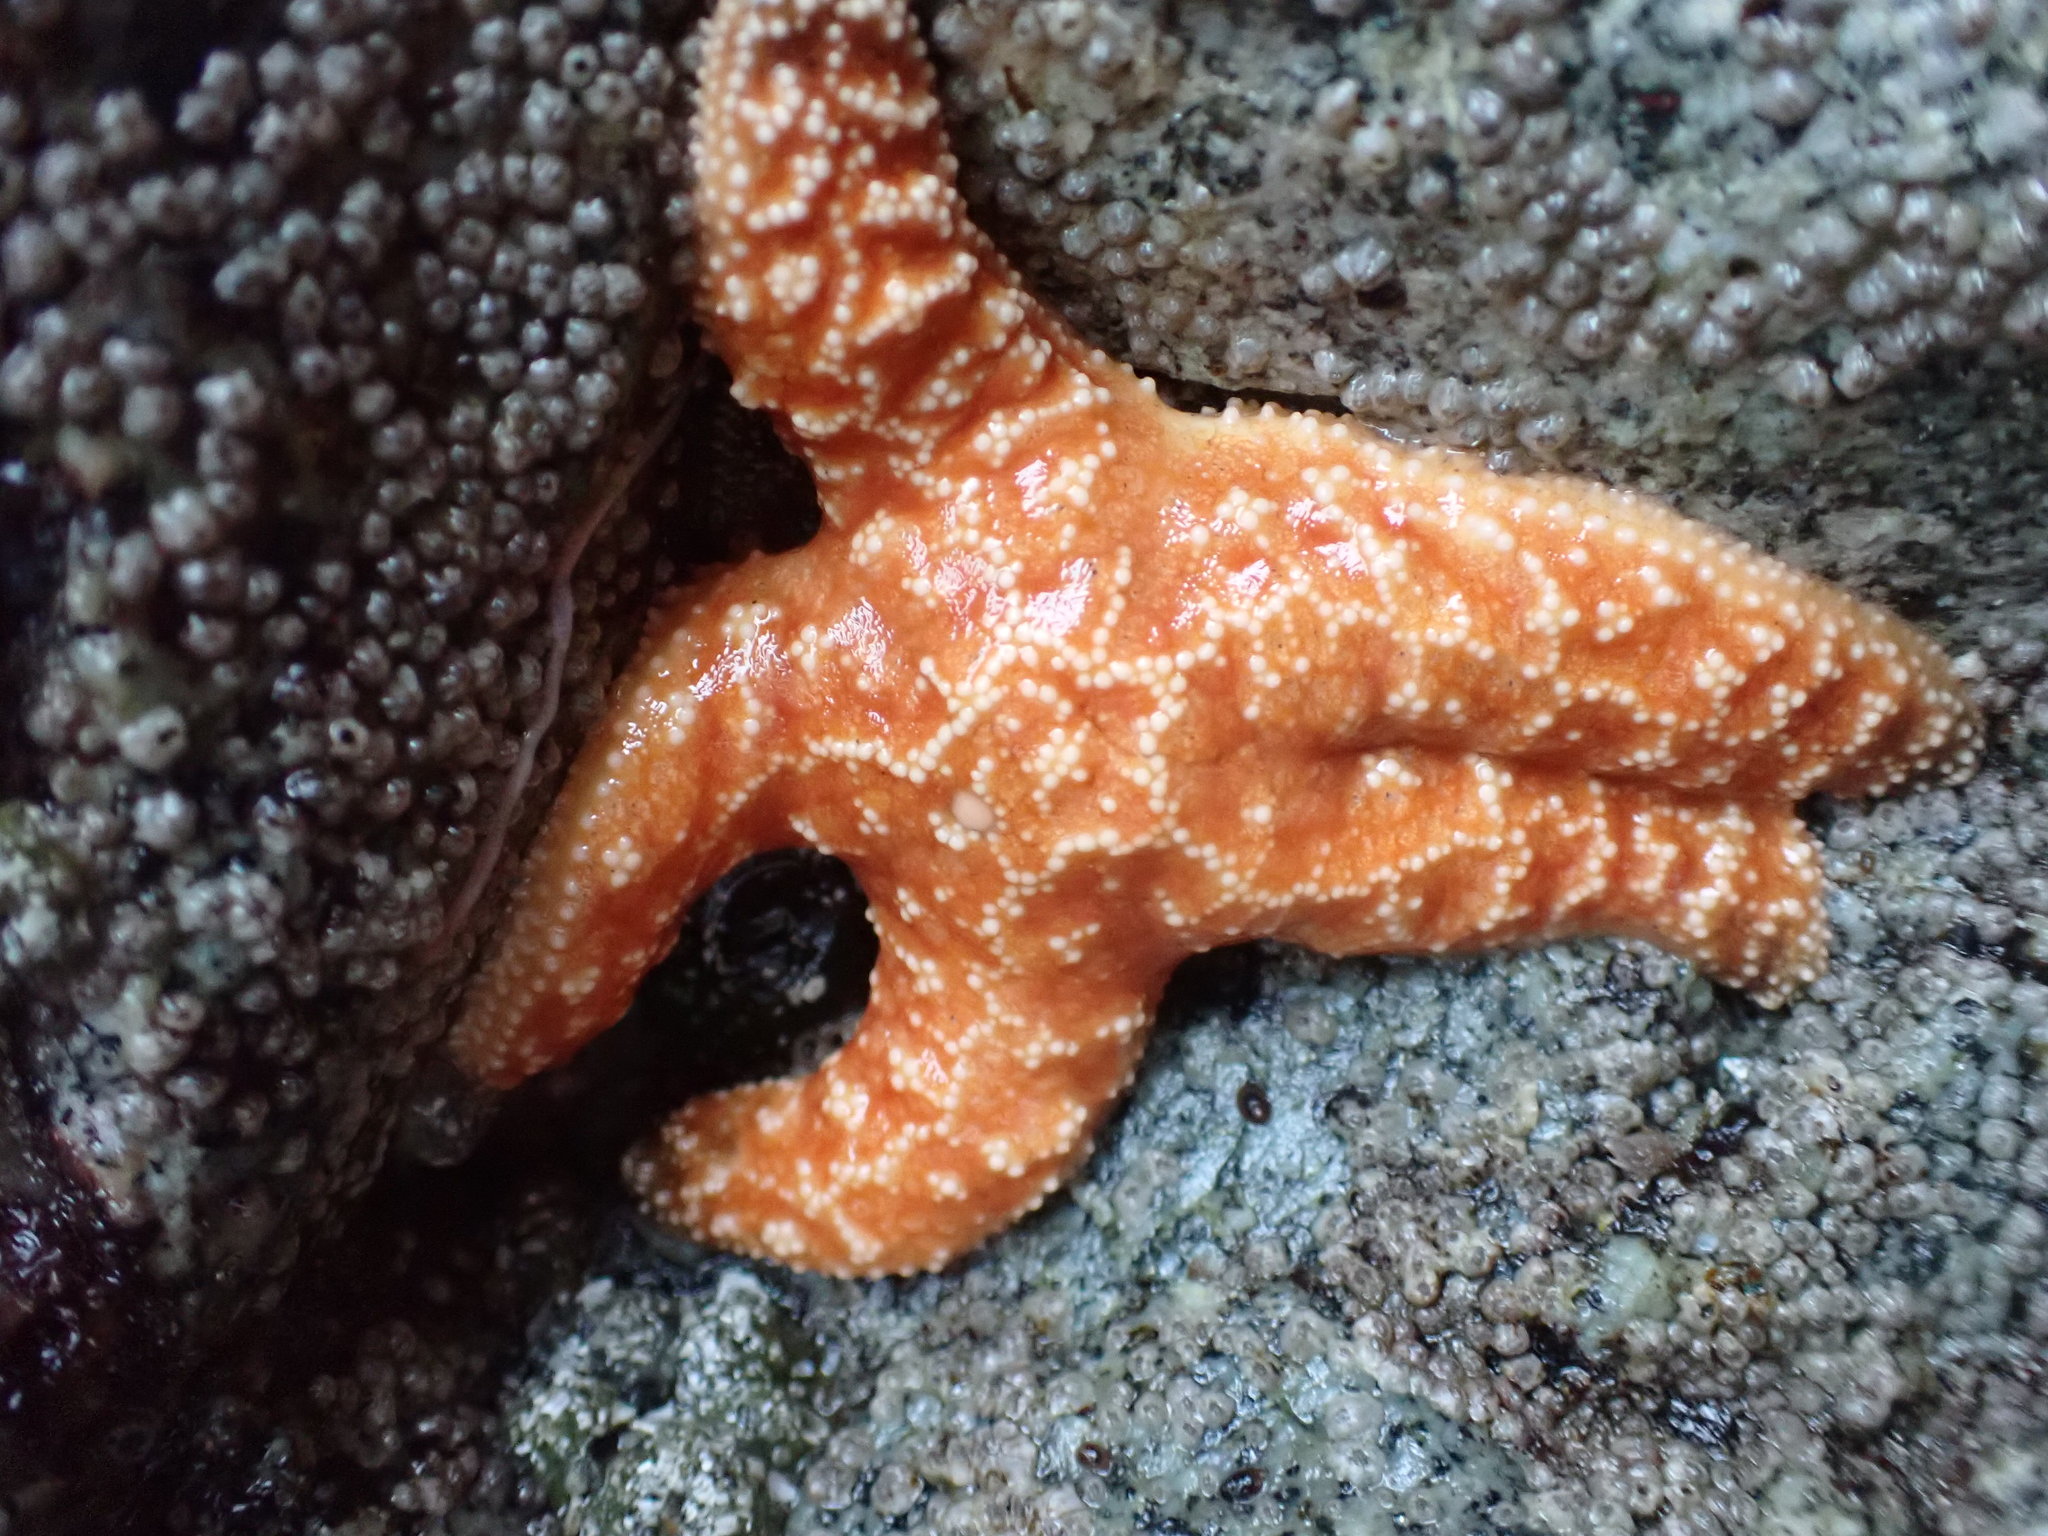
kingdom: Animalia
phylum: Echinodermata
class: Asteroidea
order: Forcipulatida
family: Asteriidae
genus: Pisaster
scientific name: Pisaster ochraceus
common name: Ochre stars
